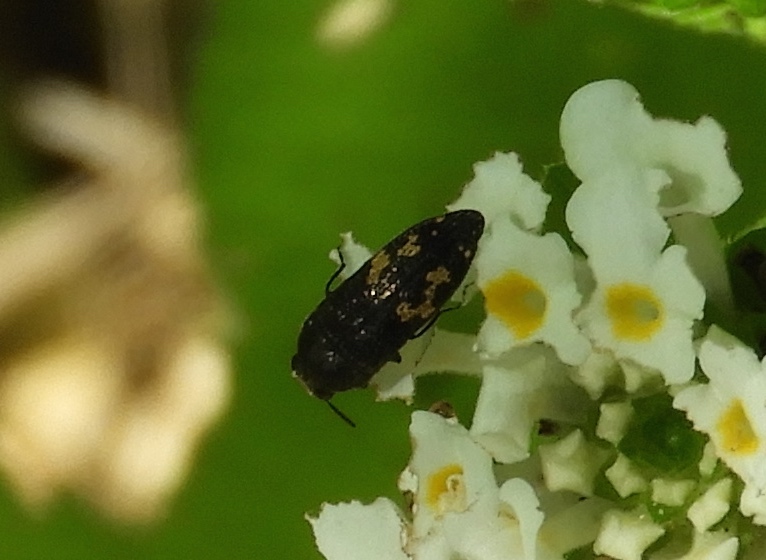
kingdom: Animalia
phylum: Arthropoda
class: Insecta
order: Coleoptera
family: Buprestidae
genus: Acmaeodera
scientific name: Acmaeodera
